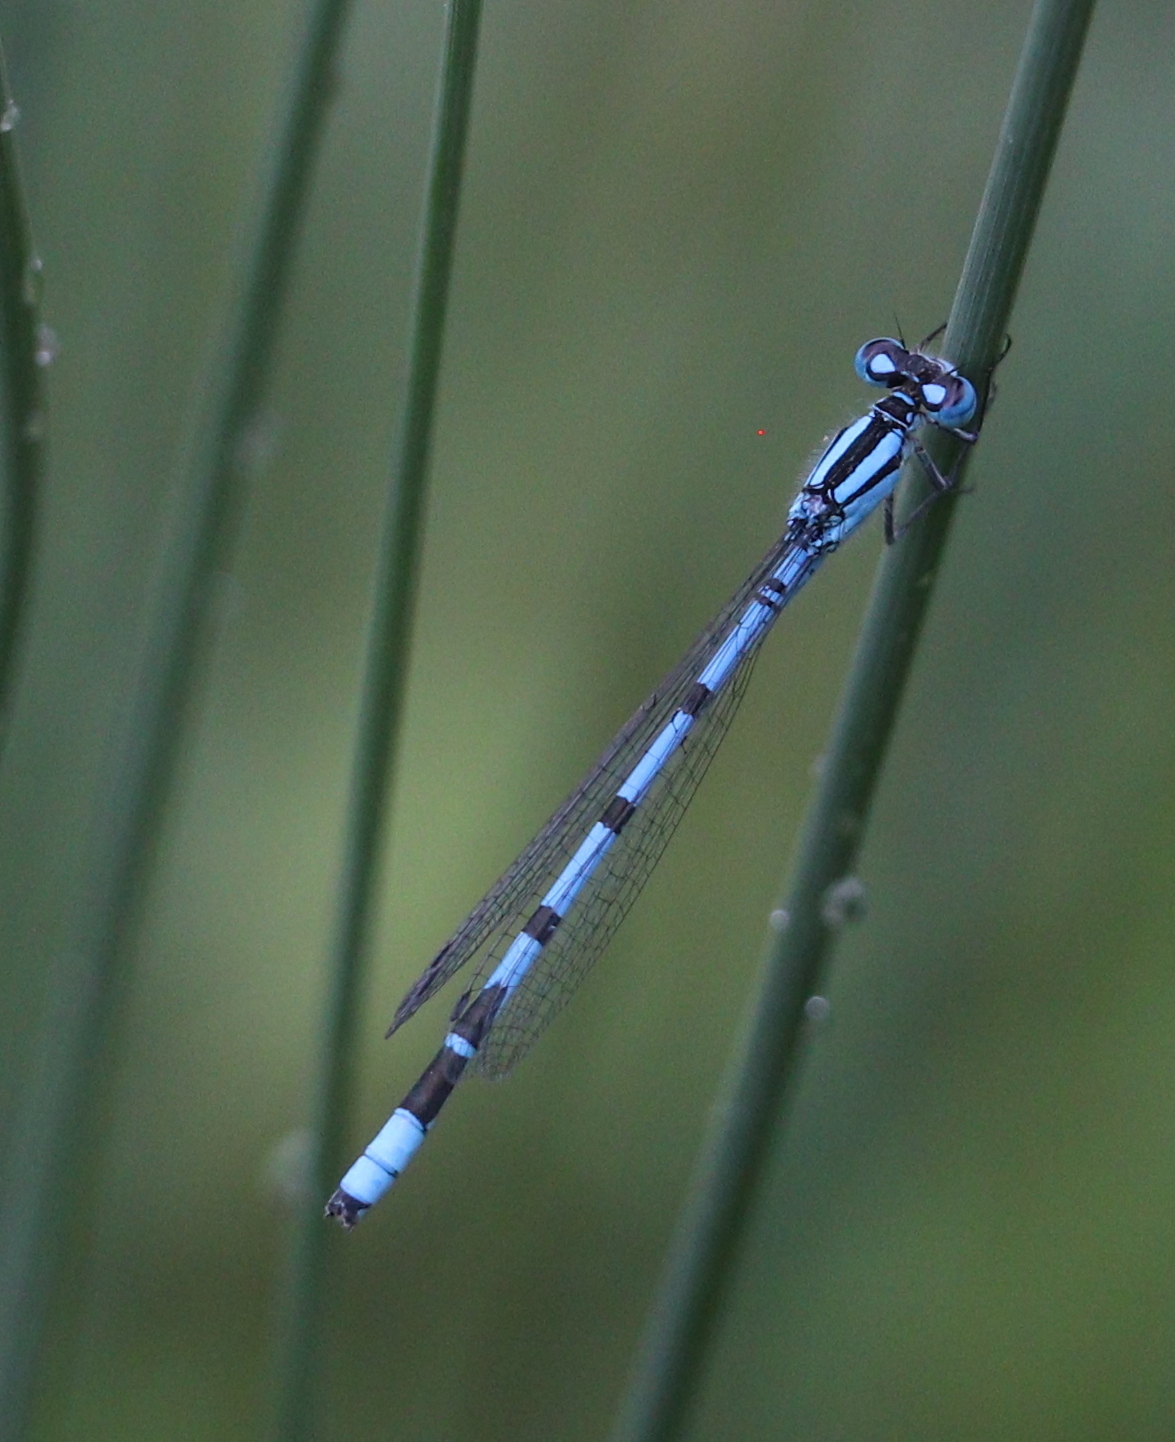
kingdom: Animalia
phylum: Arthropoda
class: Insecta
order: Odonata
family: Coenagrionidae
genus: Enallagma
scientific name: Enallagma cyathigerum
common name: Common blue damselfly
